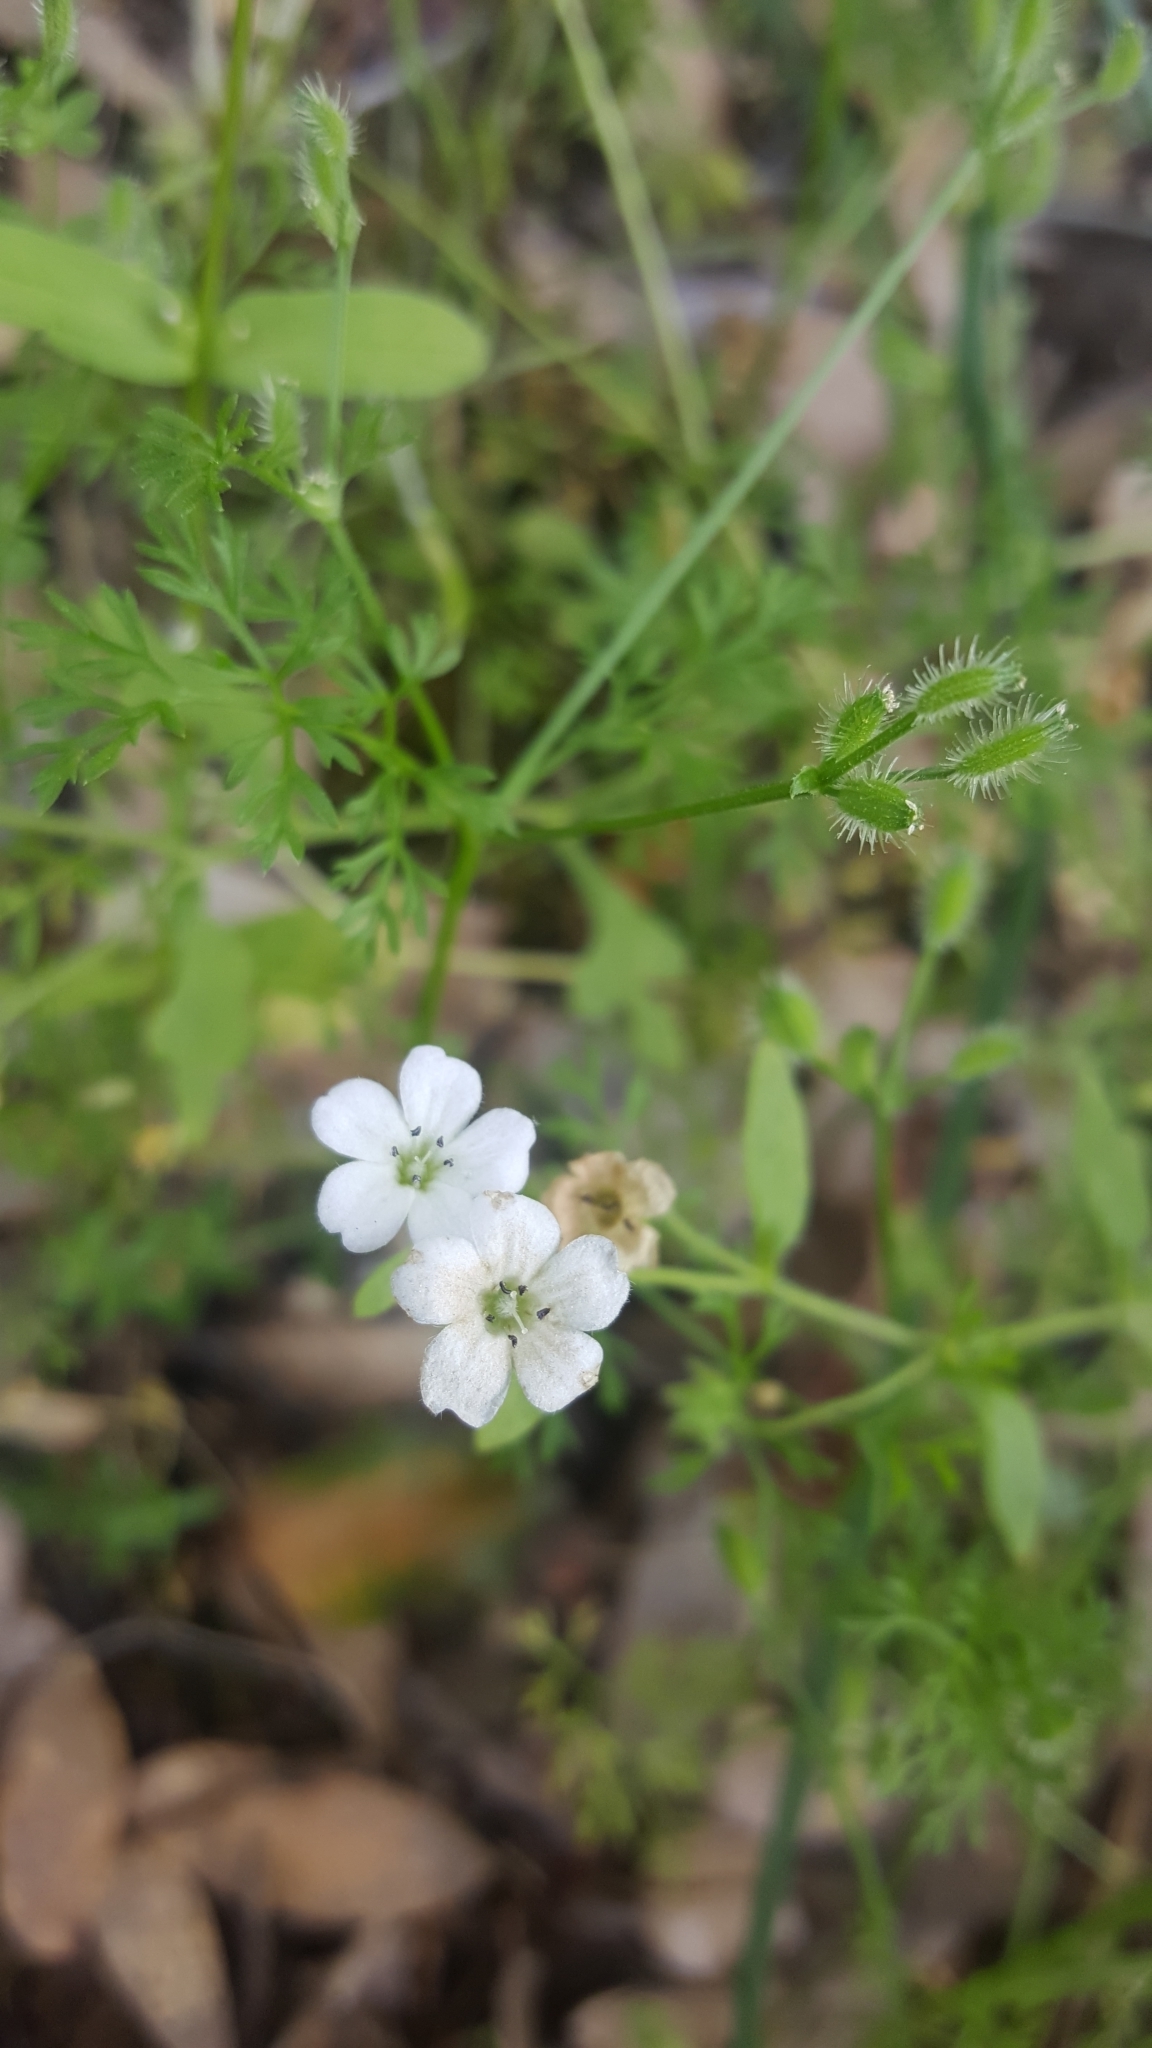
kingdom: Plantae
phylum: Tracheophyta
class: Magnoliopsida
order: Boraginales
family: Hydrophyllaceae
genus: Nemophila
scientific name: Nemophila heterophylla
